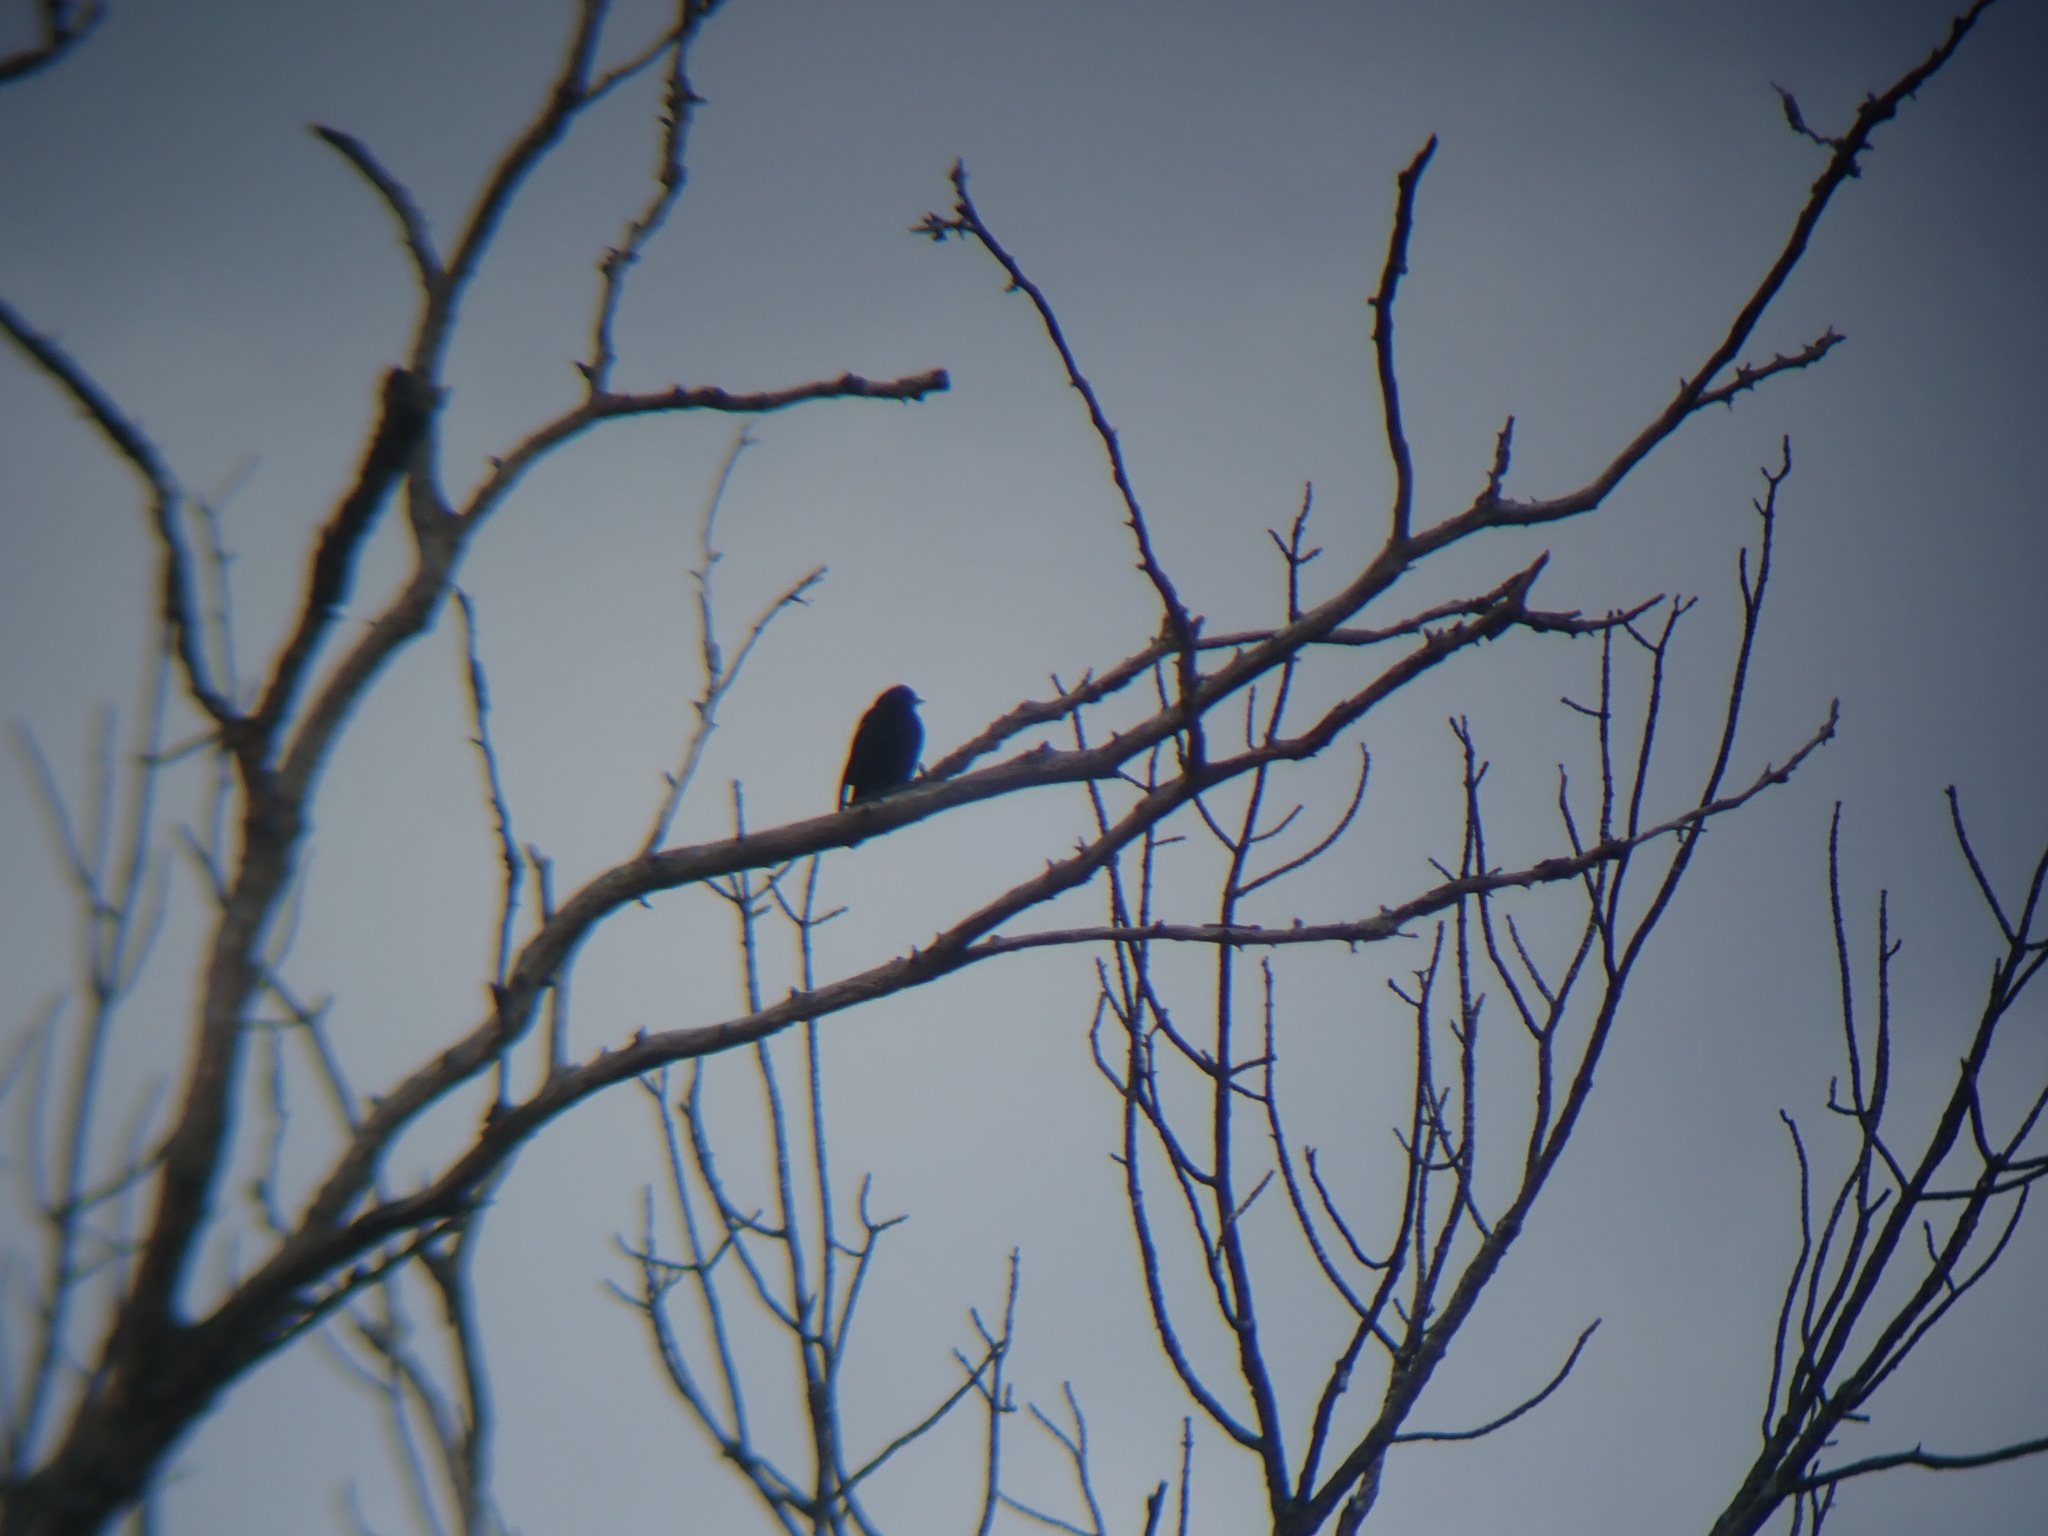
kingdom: Animalia
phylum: Chordata
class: Aves
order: Passeriformes
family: Icteridae
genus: Agelaius
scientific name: Agelaius phoeniceus
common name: Red-winged blackbird
